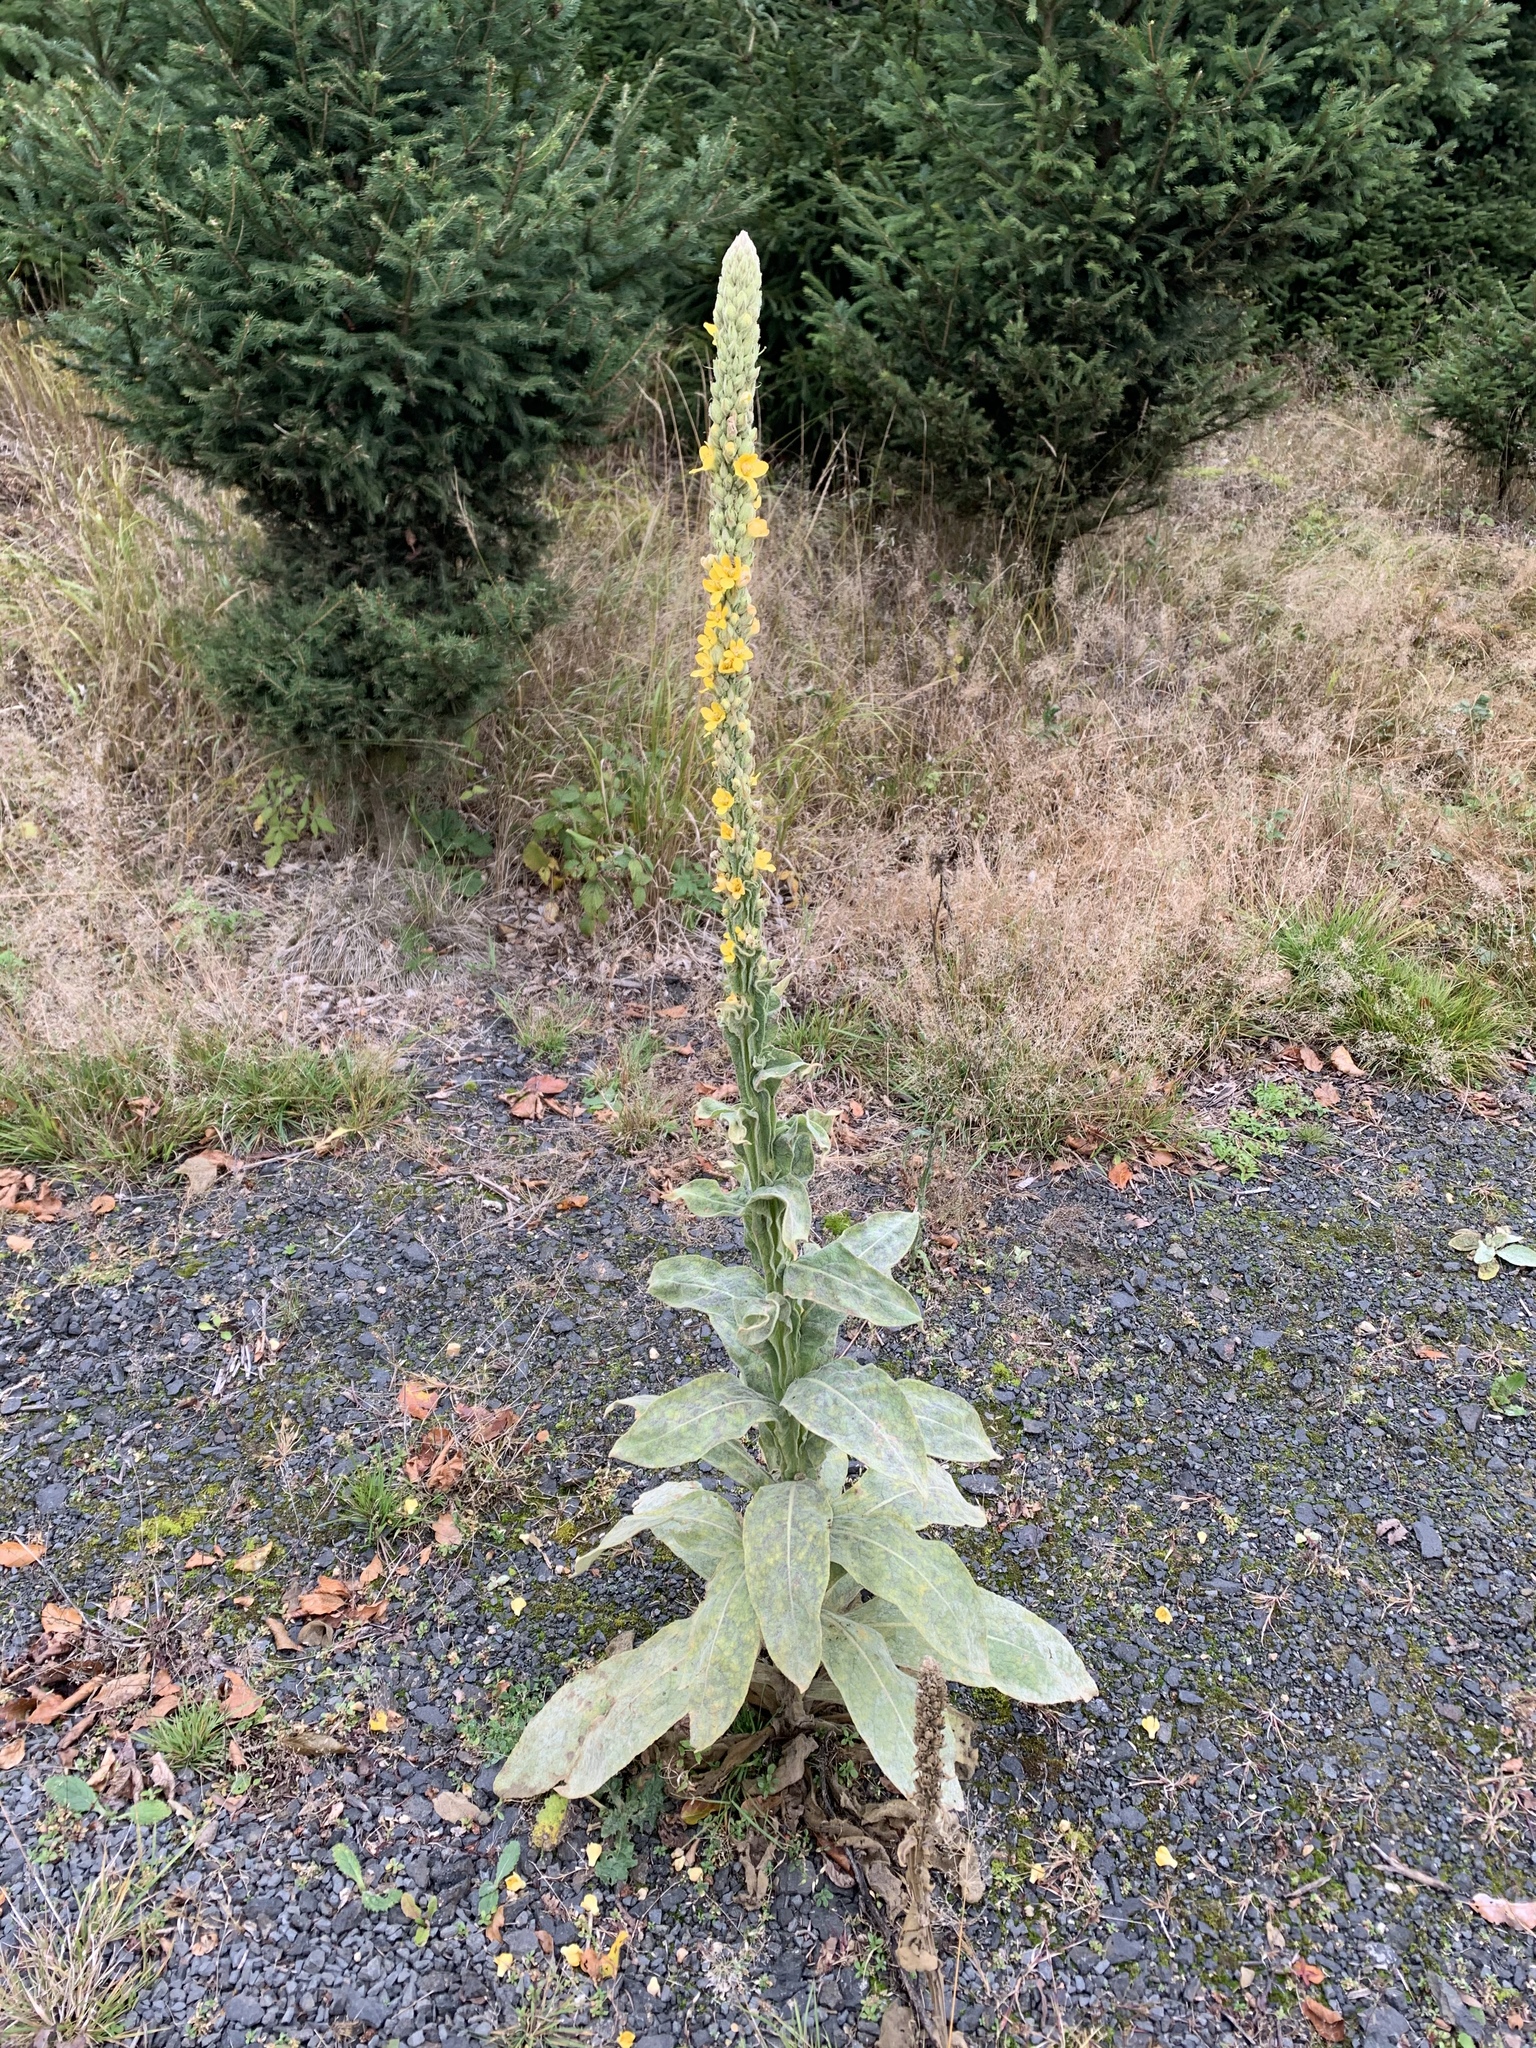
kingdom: Plantae
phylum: Tracheophyta
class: Magnoliopsida
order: Lamiales
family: Scrophulariaceae
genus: Verbascum
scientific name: Verbascum thapsus
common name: Common mullein
